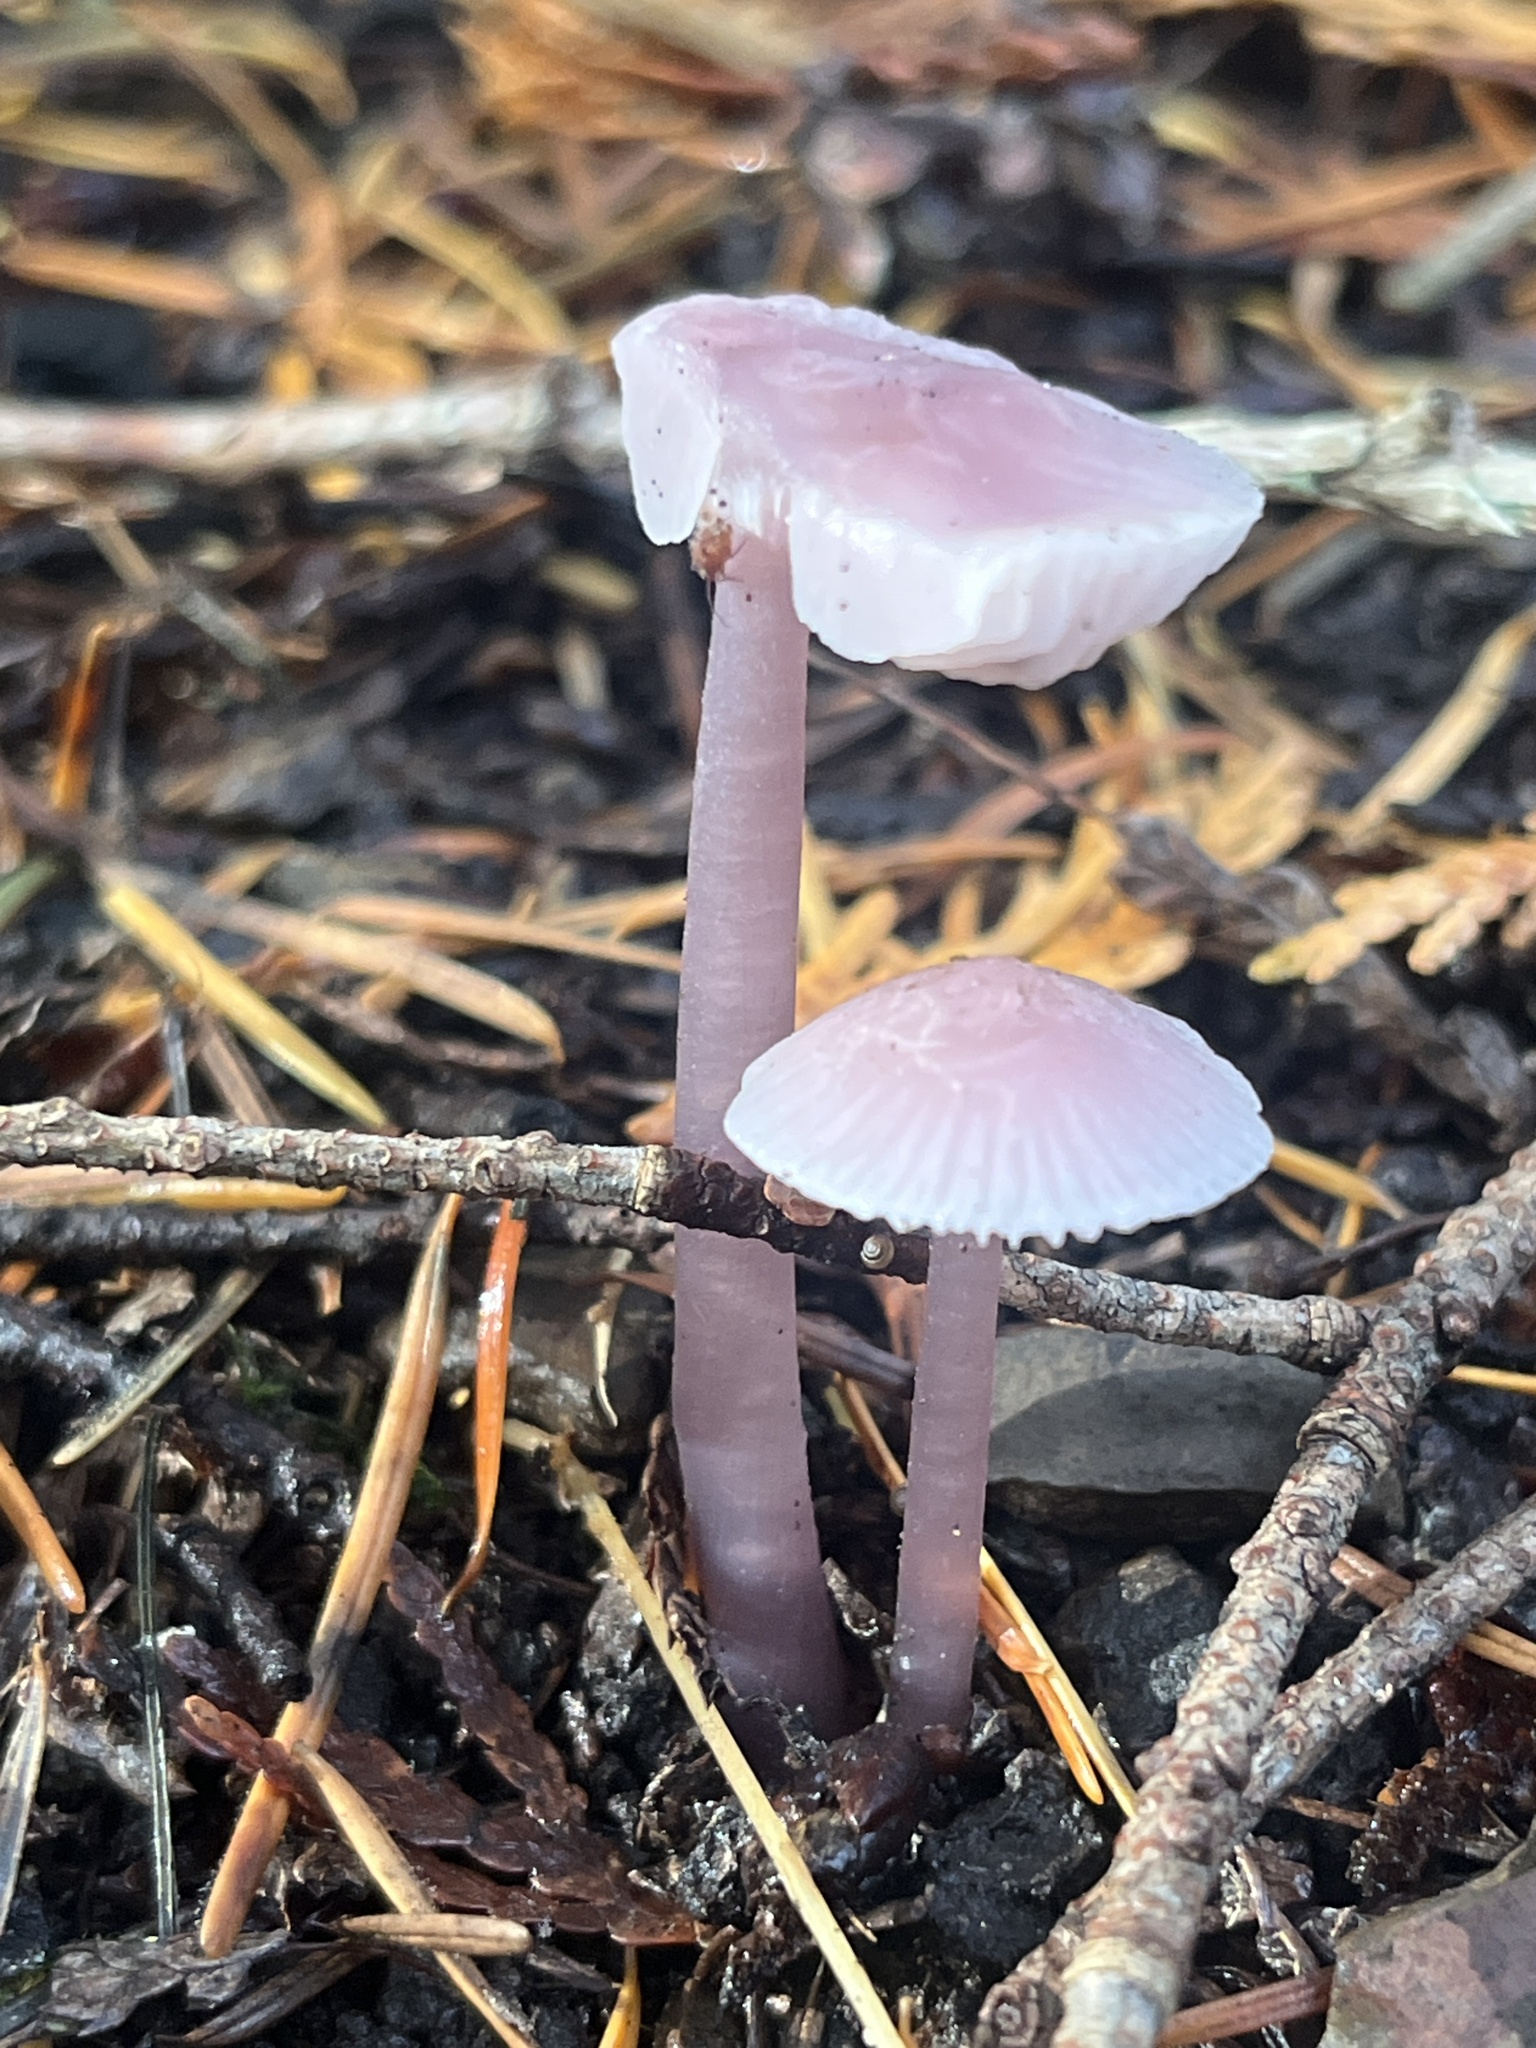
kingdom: Fungi
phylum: Basidiomycota
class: Agaricomycetes
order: Agaricales
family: Mycenaceae
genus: Mycena
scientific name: Mycena pura
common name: Lilac bonnet
